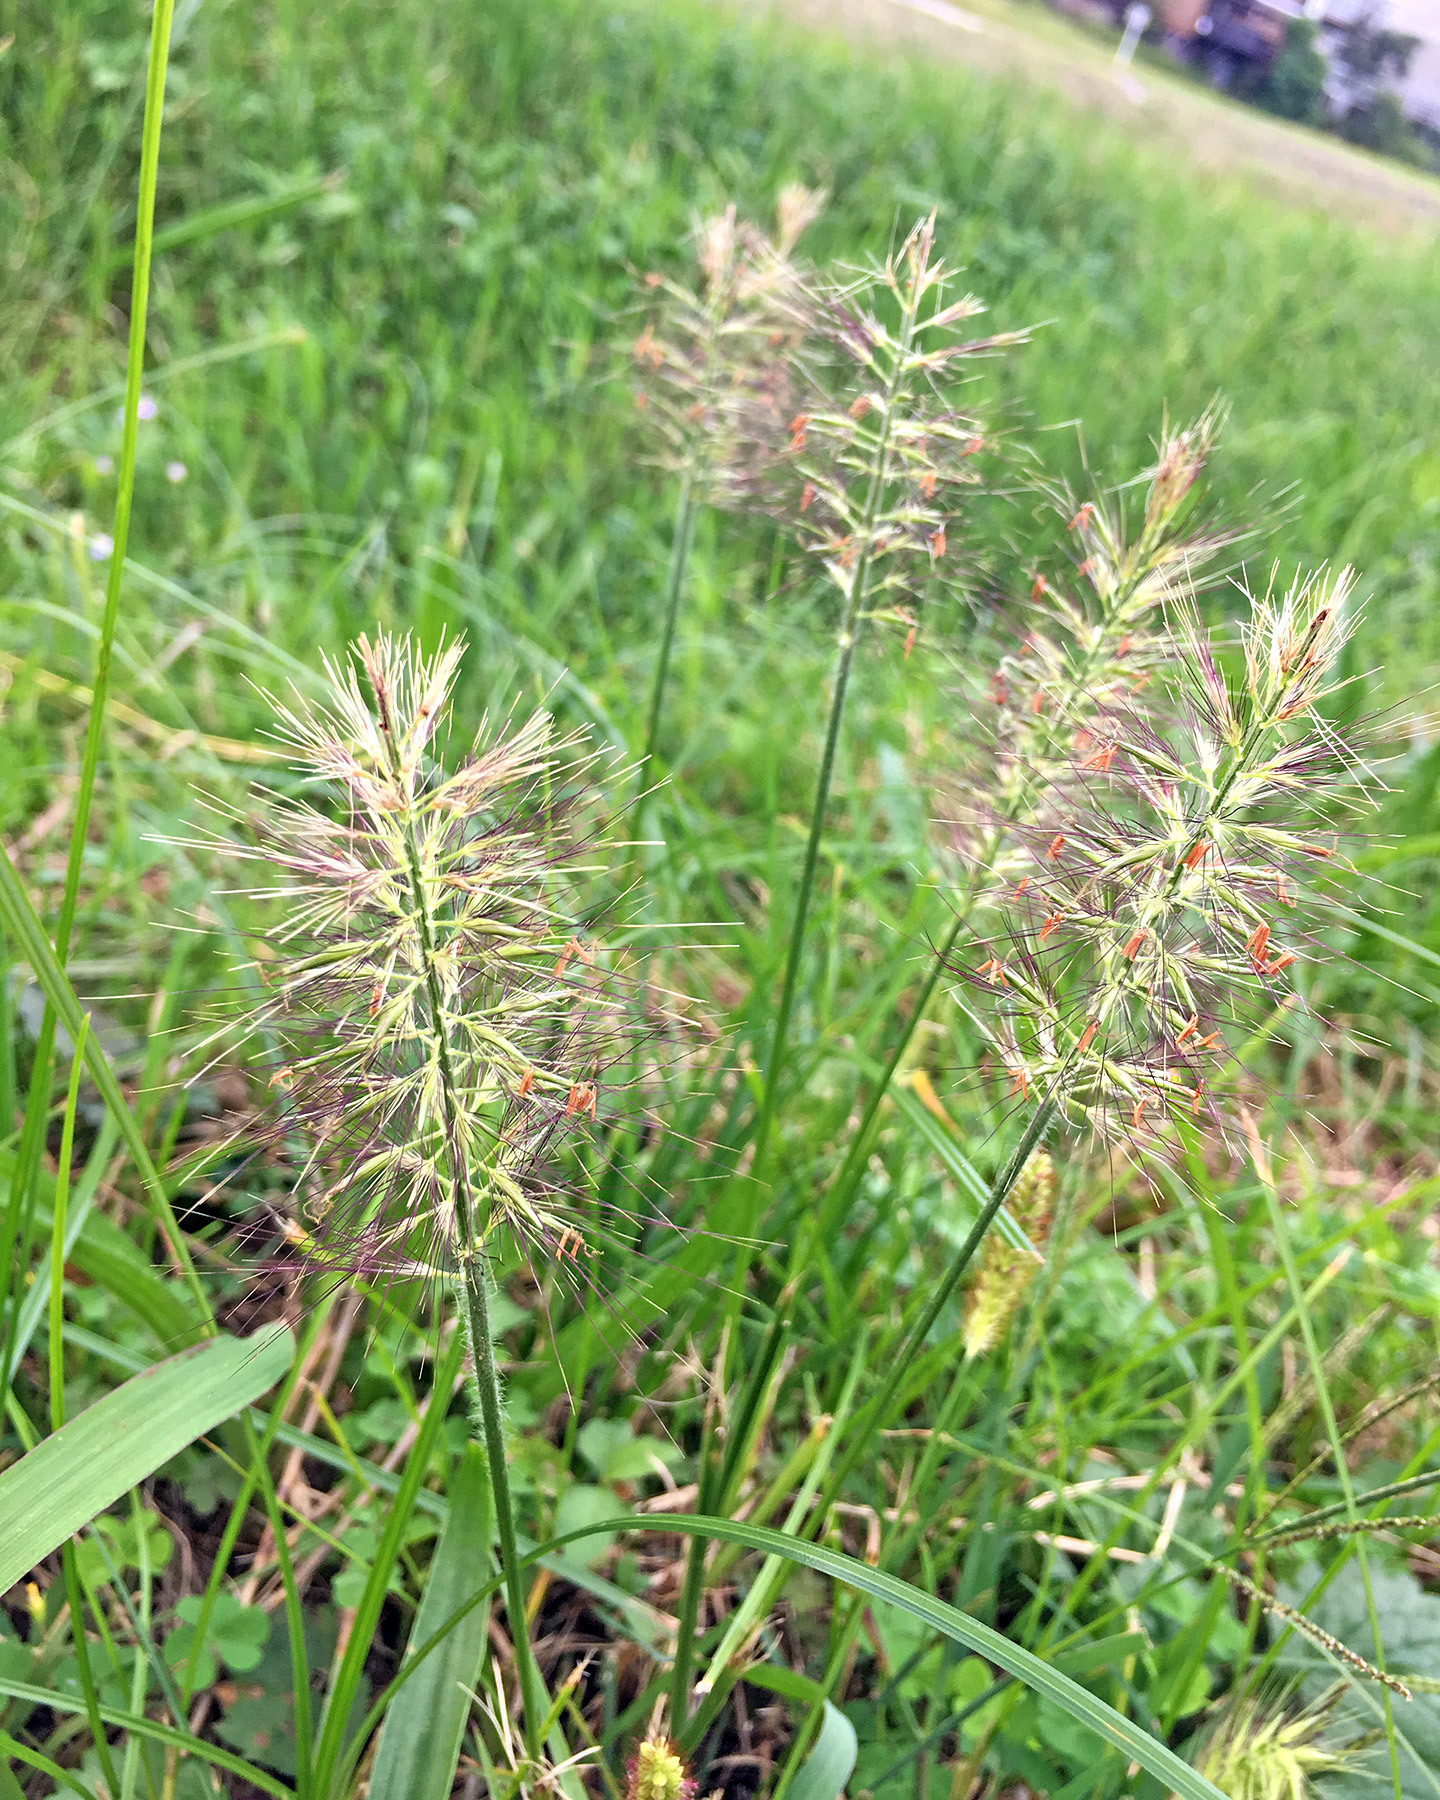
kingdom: Plantae
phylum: Tracheophyta
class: Liliopsida
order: Poales
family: Poaceae
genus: Cenchrus
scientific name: Cenchrus alopecuroides
